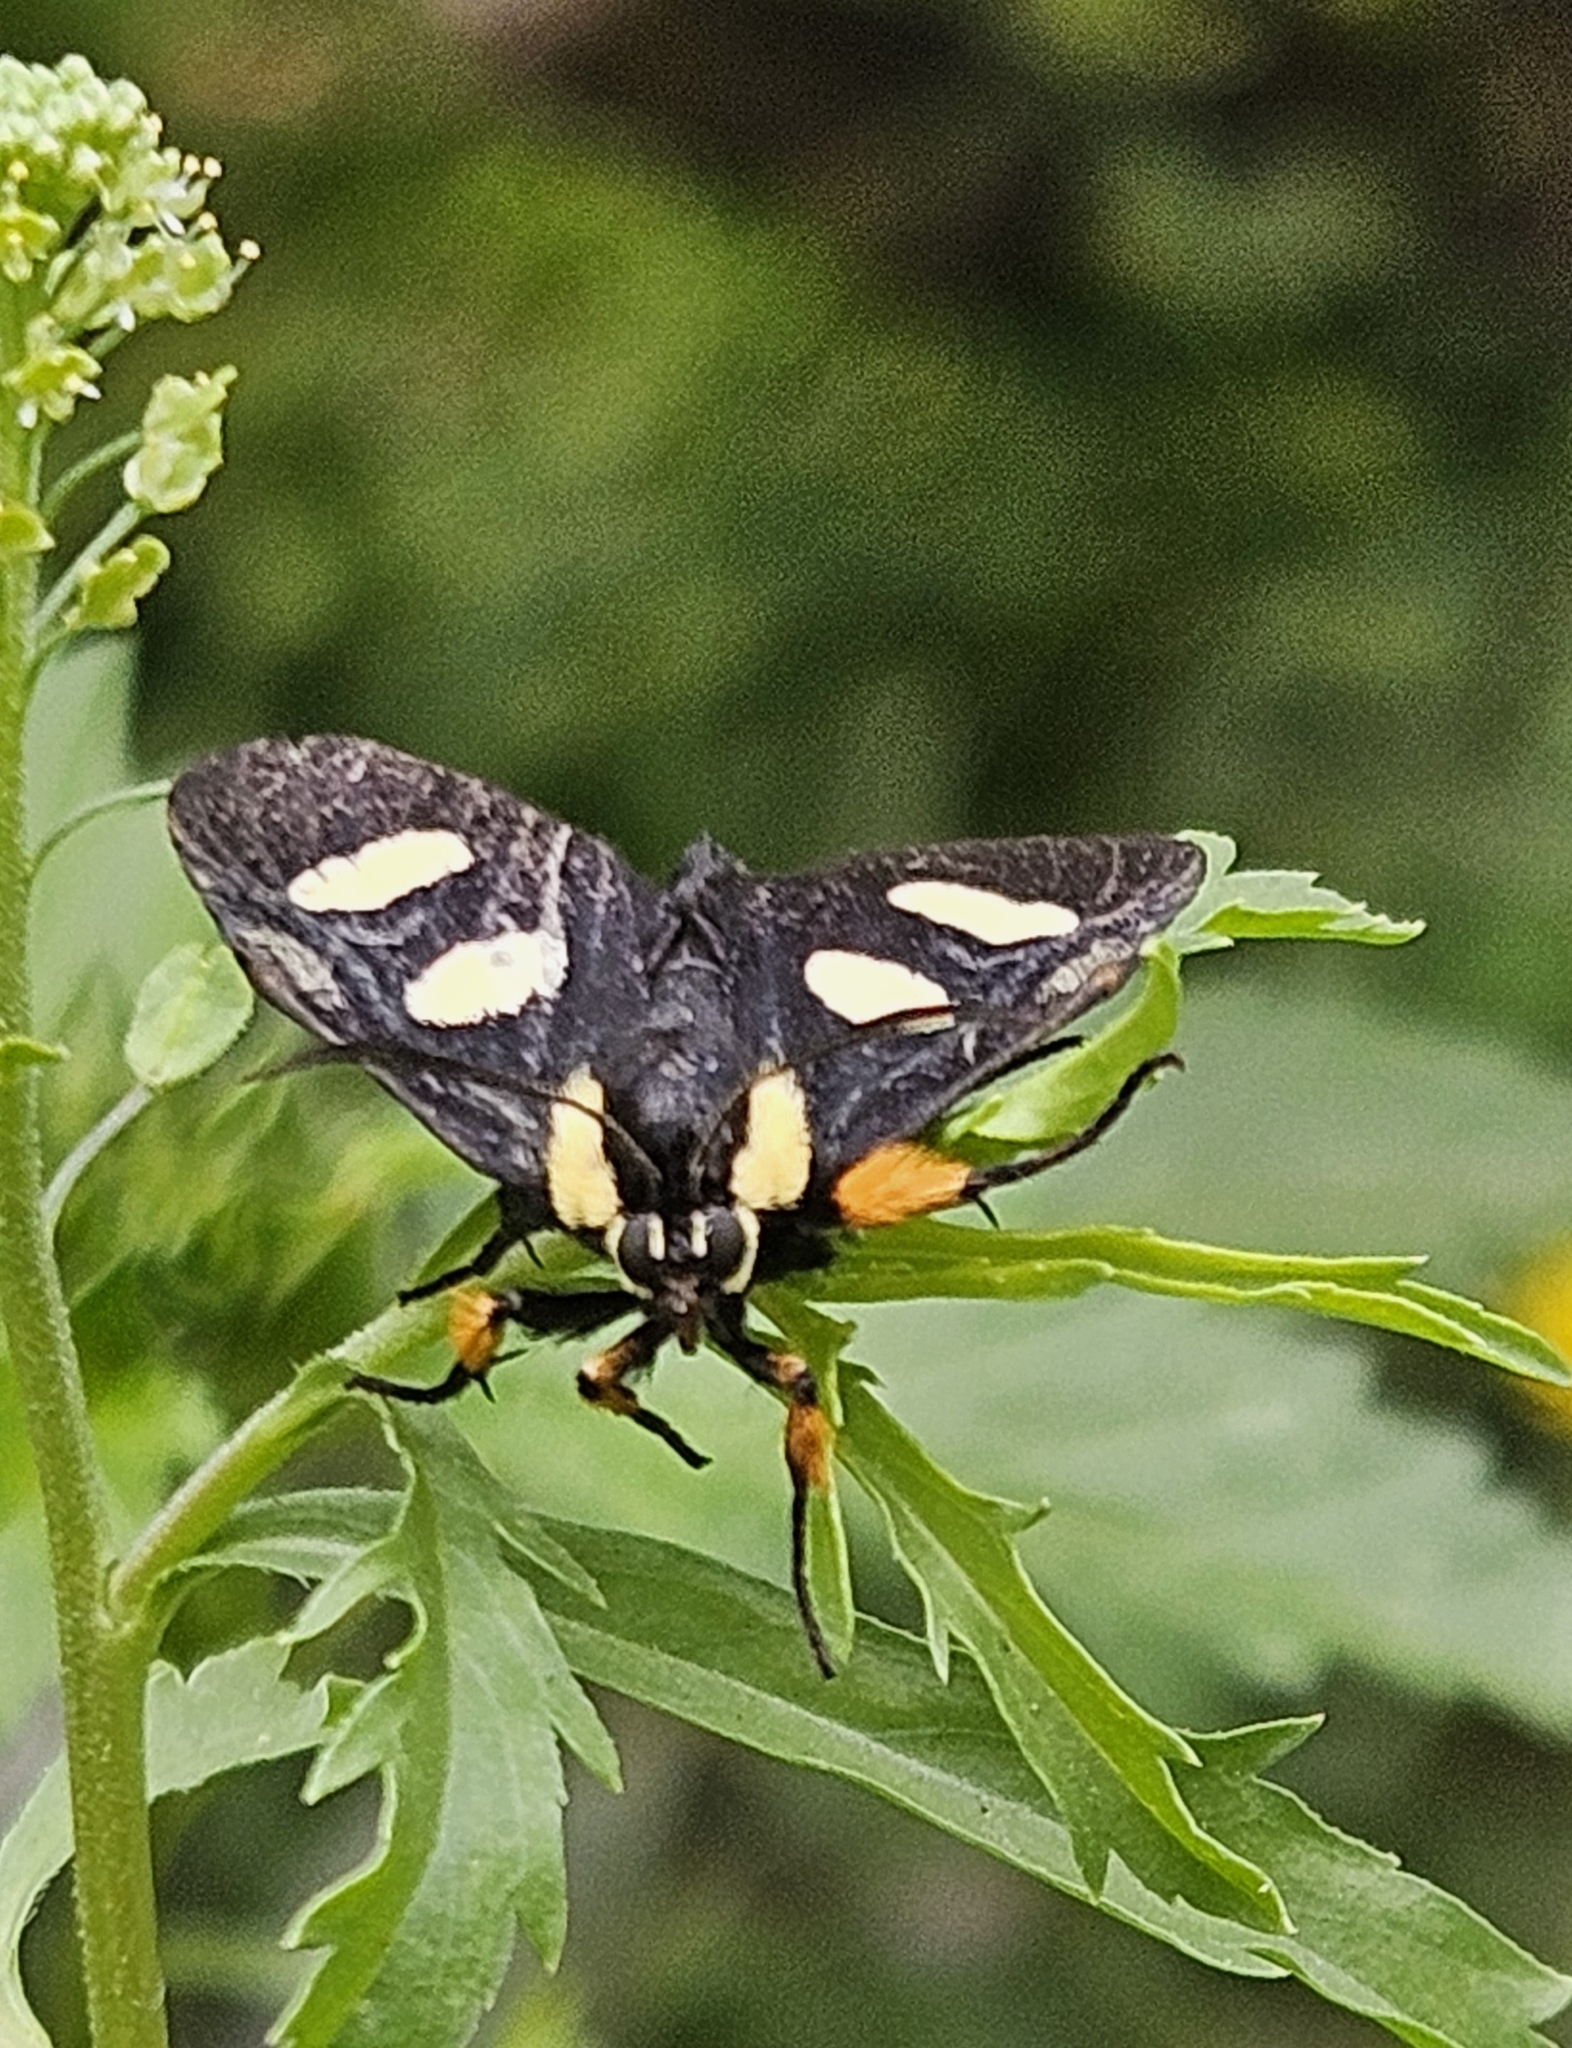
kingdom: Animalia
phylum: Arthropoda
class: Insecta
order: Lepidoptera
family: Noctuidae
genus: Alypia
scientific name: Alypia disparata
